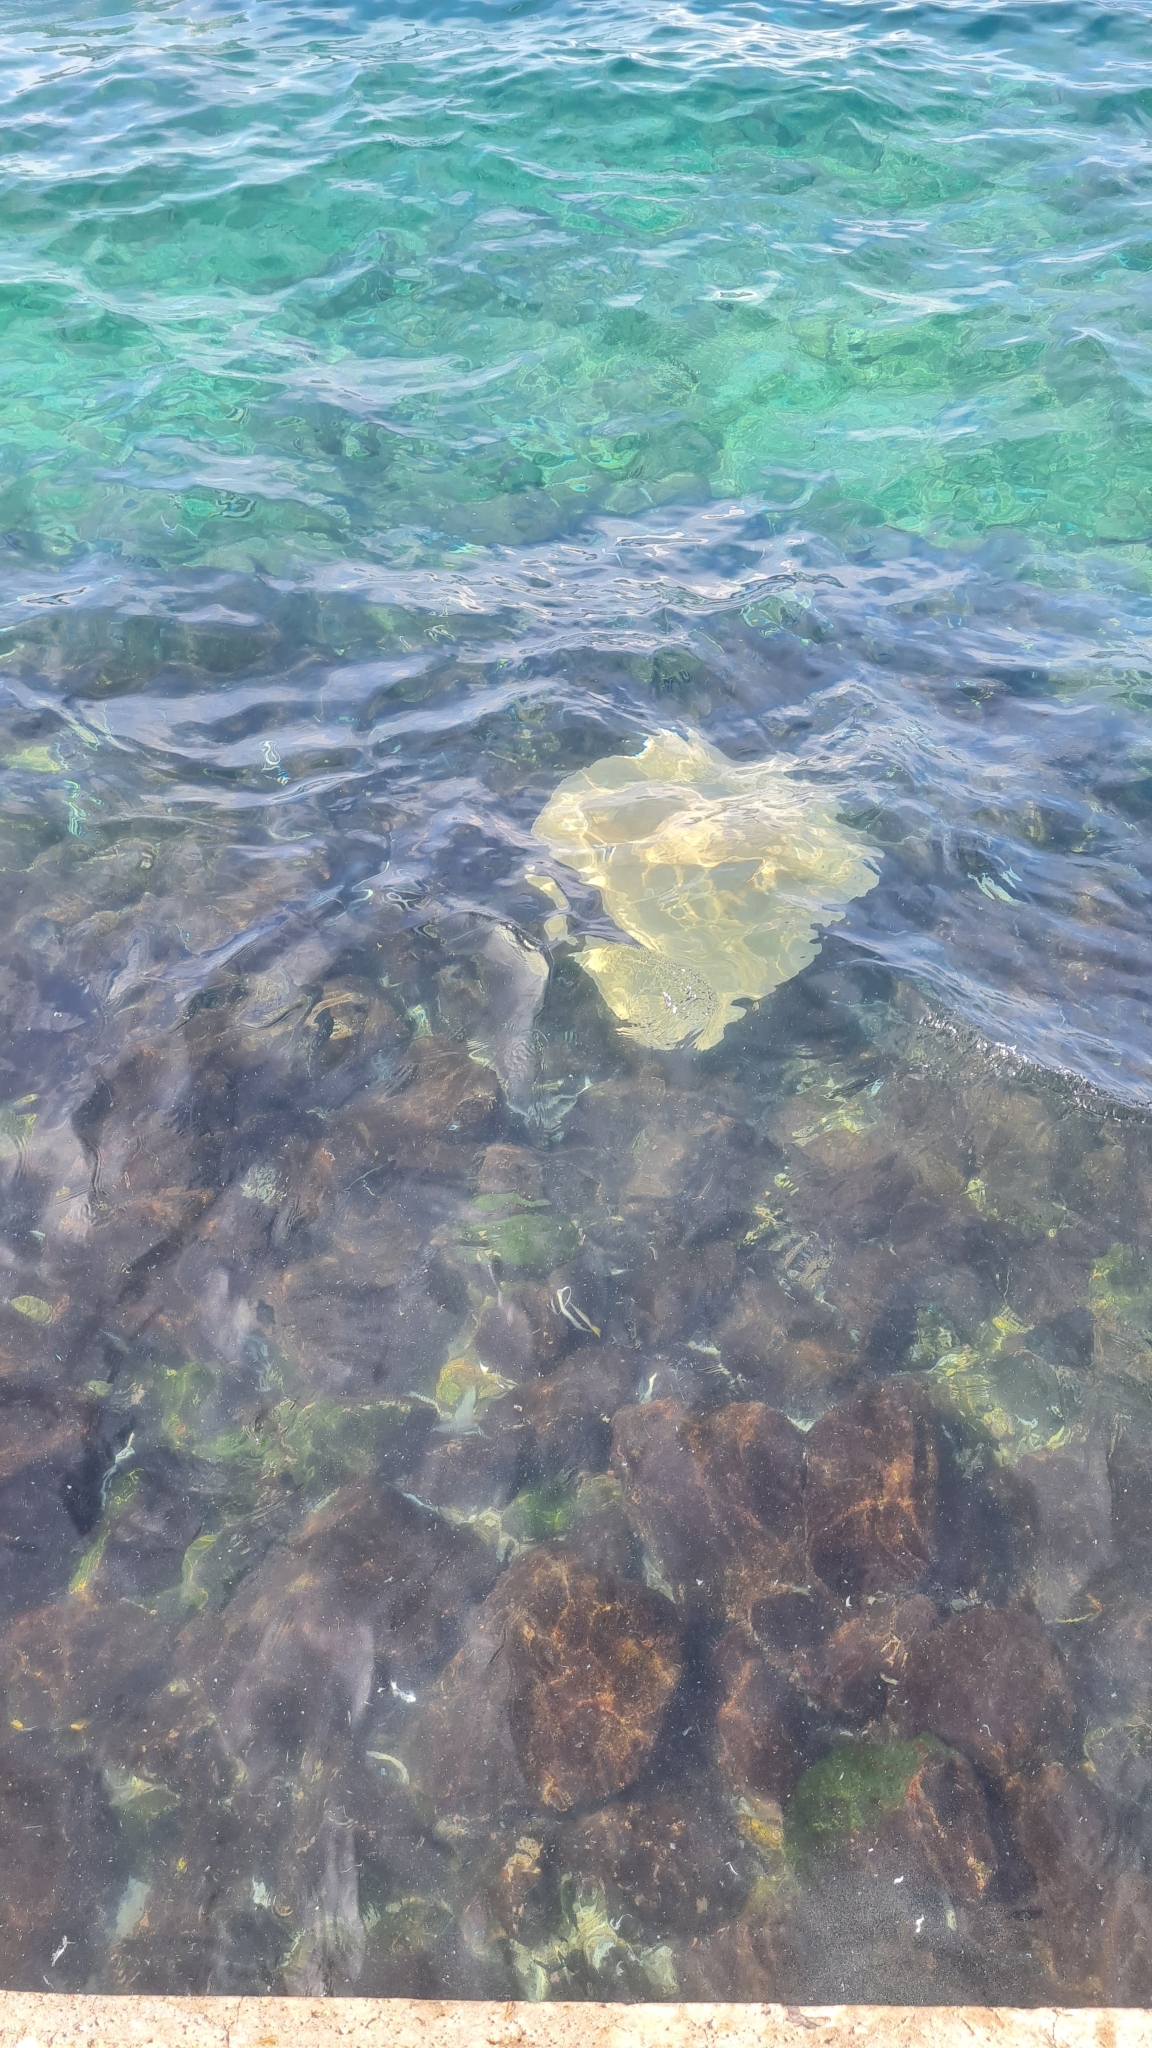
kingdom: Animalia
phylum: Chordata
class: Elasmobranchii
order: Myliobatiformes
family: Dasyatidae
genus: Pateobatis
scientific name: Pateobatis
